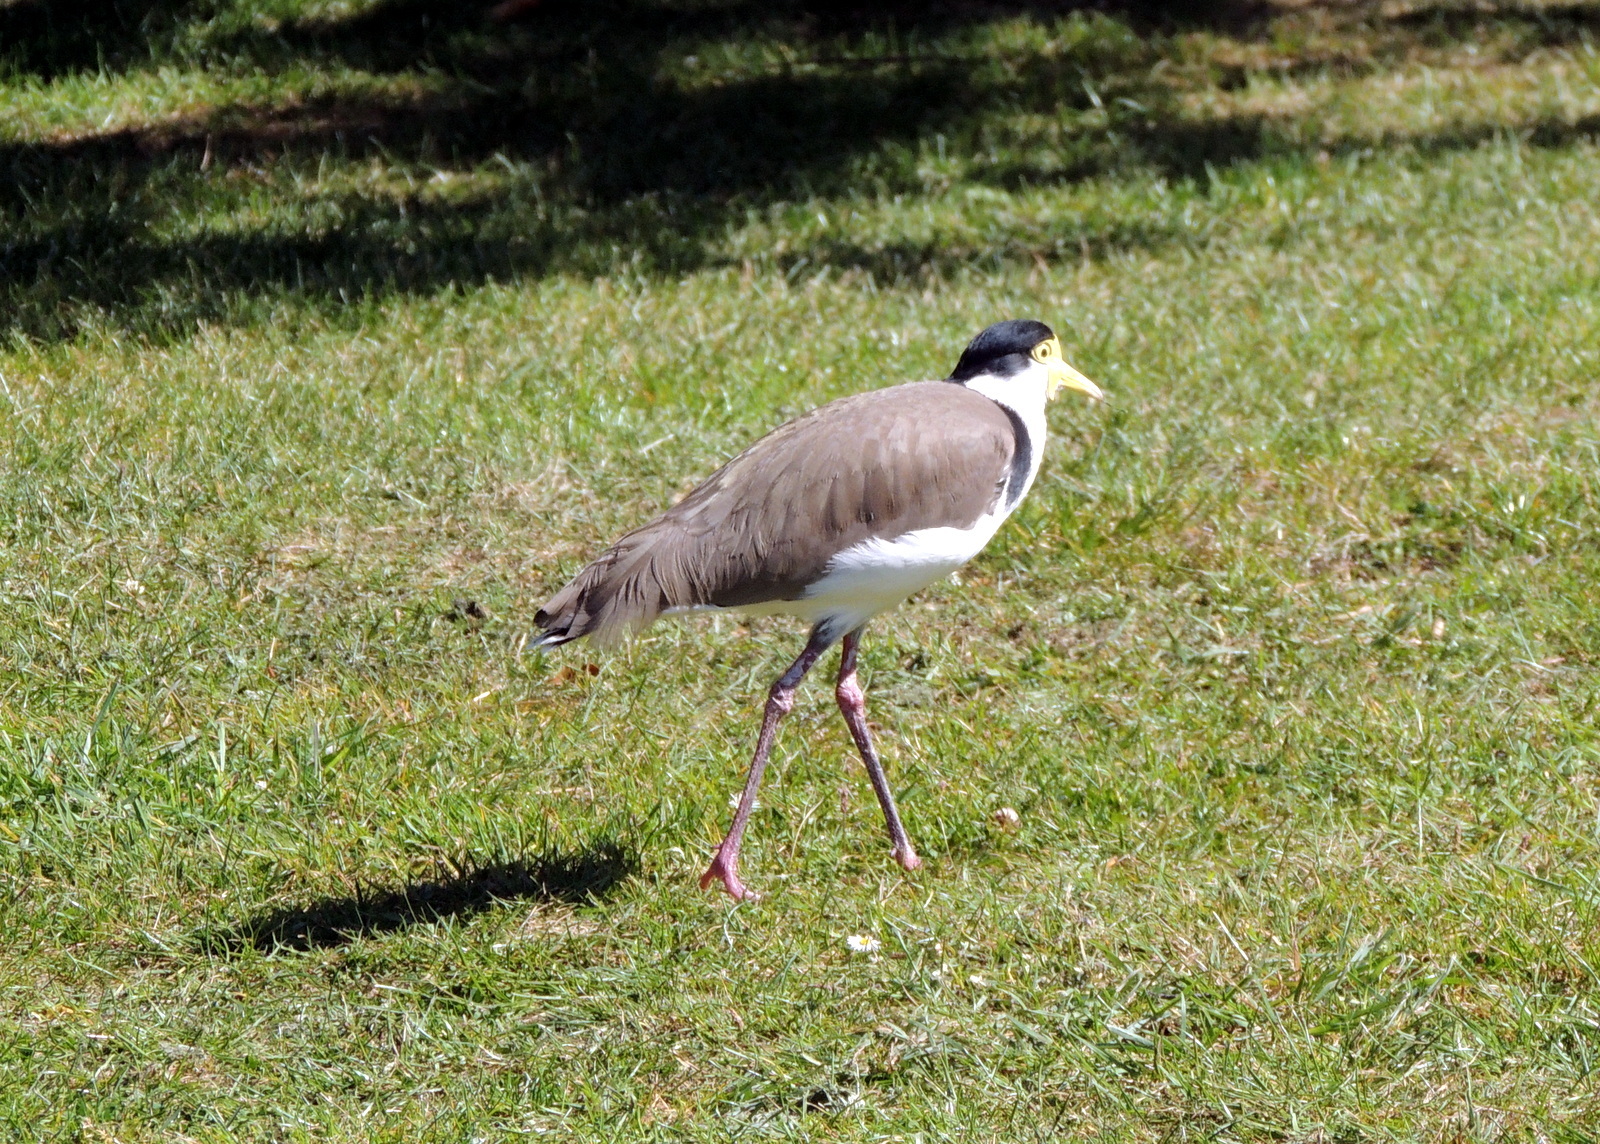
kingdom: Animalia
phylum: Chordata
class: Aves
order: Charadriiformes
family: Charadriidae
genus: Vanellus
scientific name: Vanellus miles
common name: Masked lapwing
